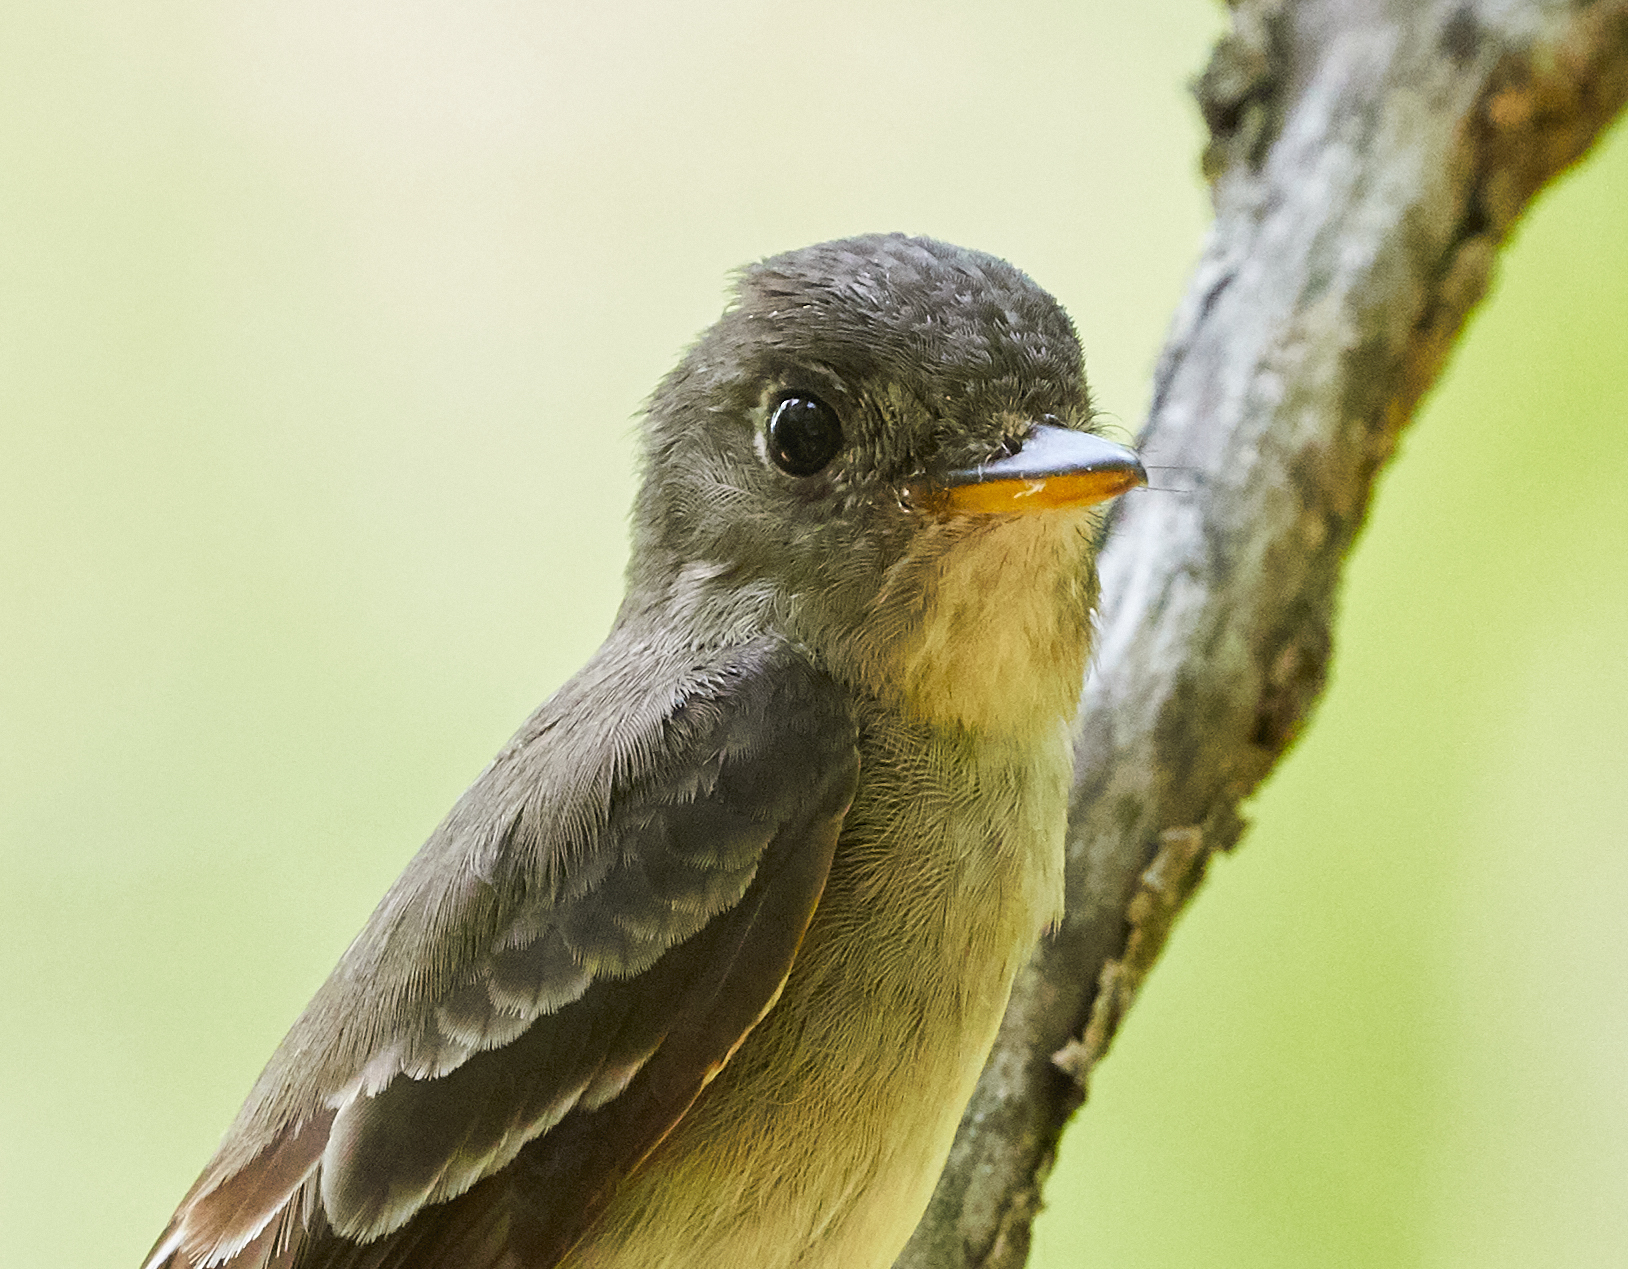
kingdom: Animalia
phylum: Chordata
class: Aves
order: Passeriformes
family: Tyrannidae
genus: Contopus
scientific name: Contopus virens
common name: Eastern wood-pewee
